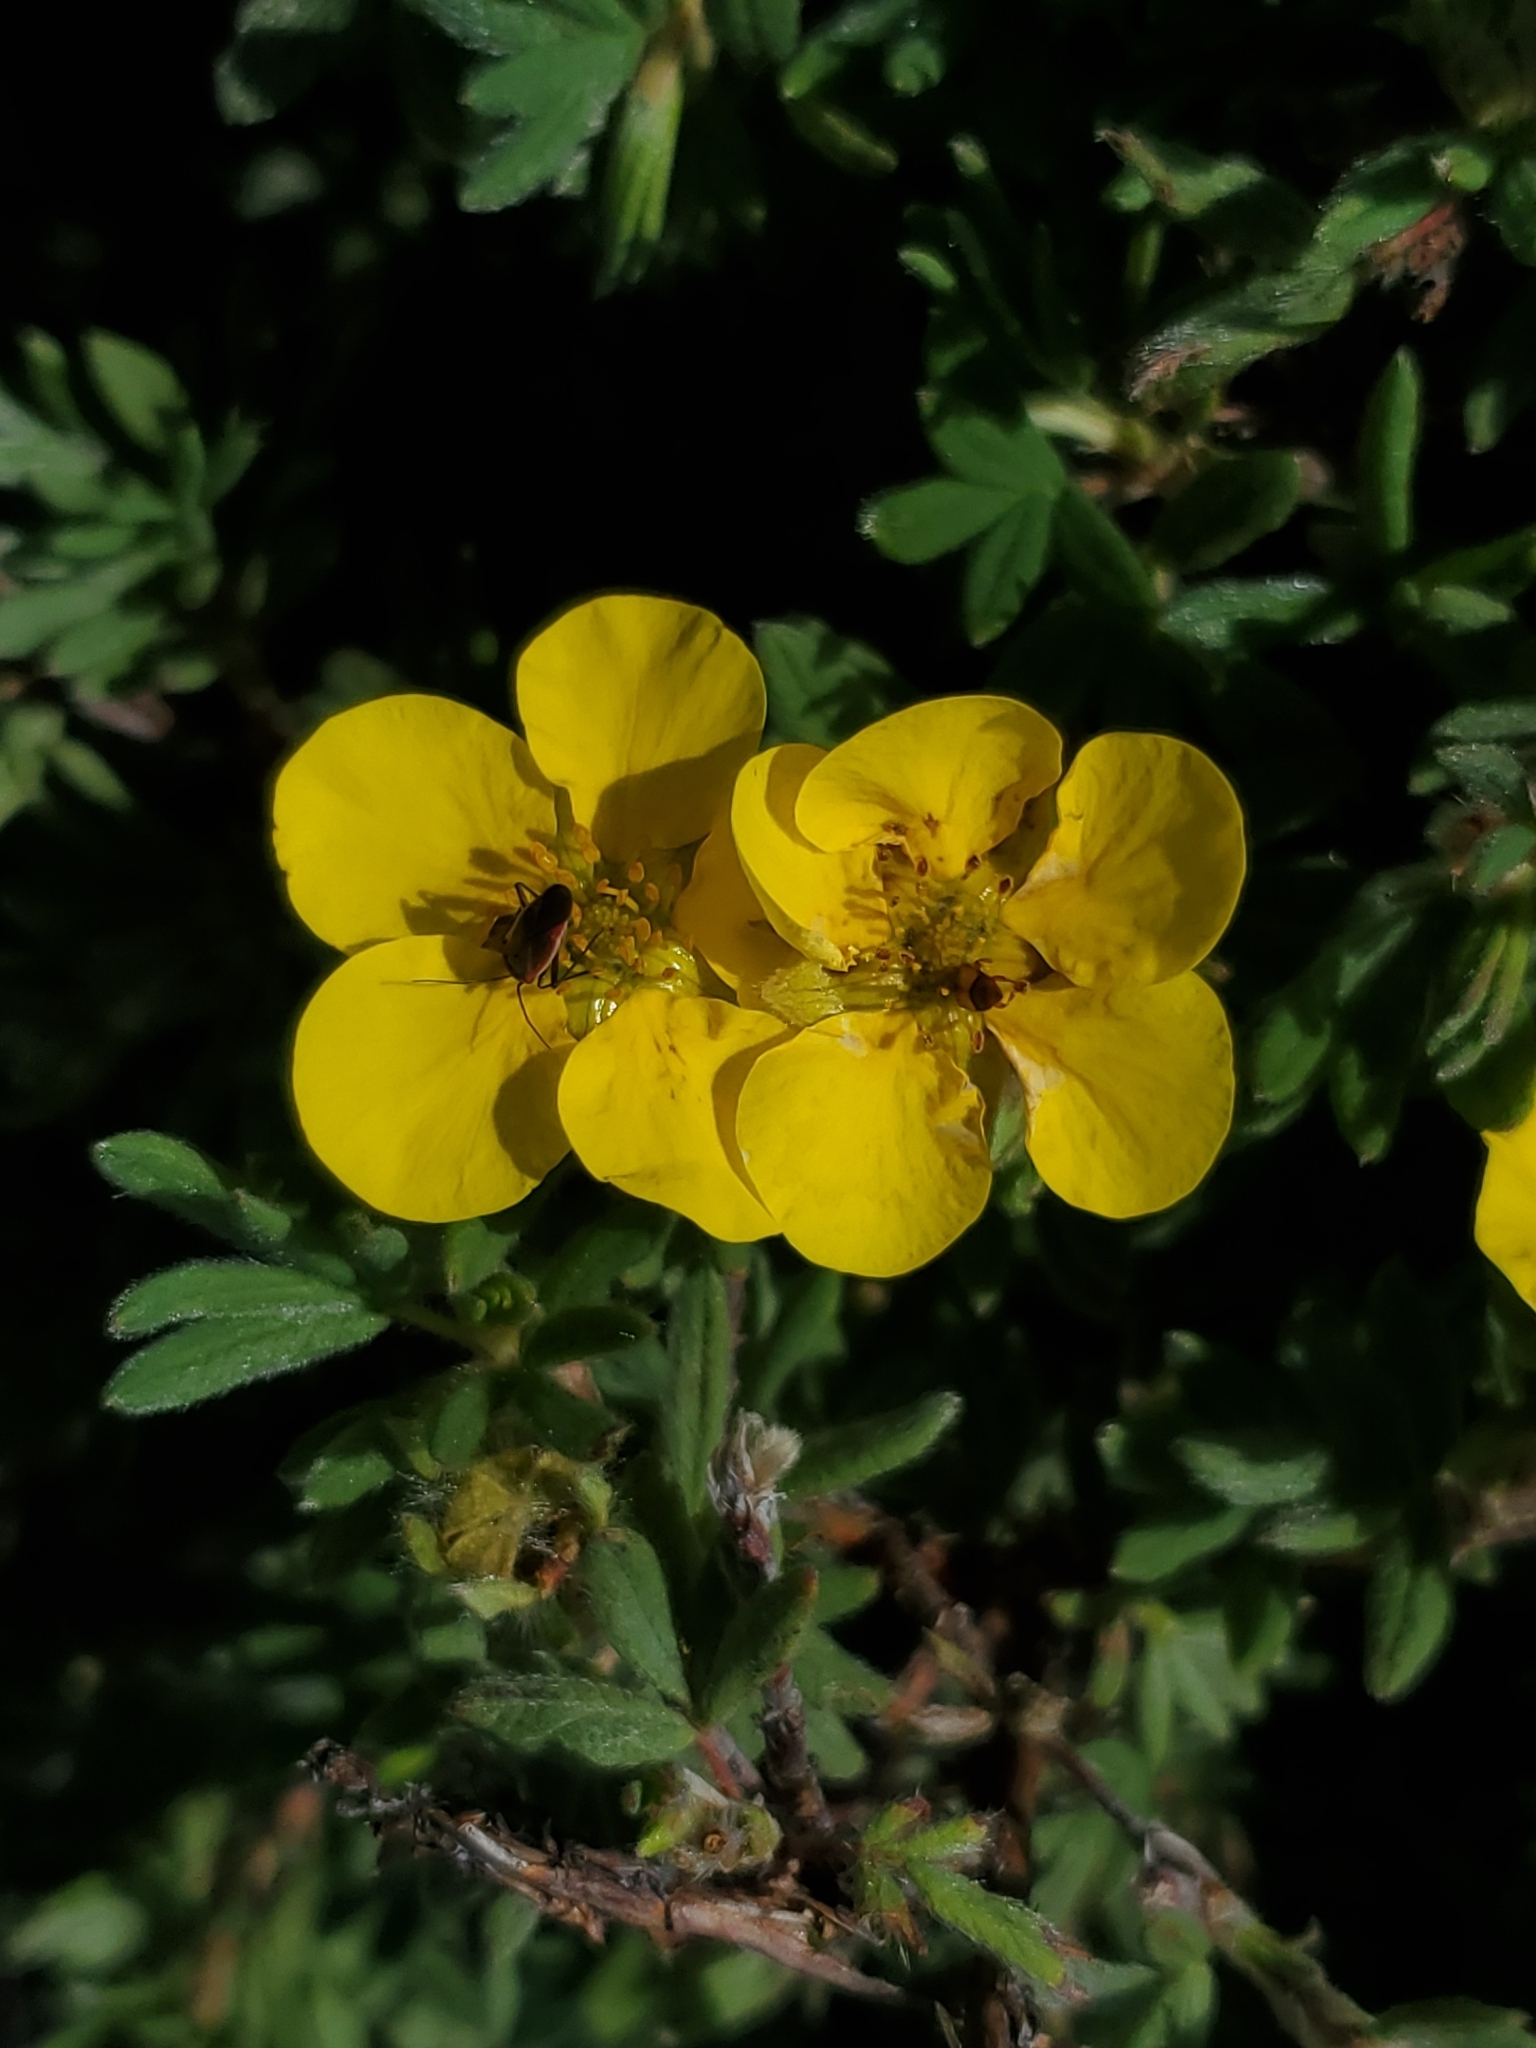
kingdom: Plantae
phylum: Tracheophyta
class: Magnoliopsida
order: Rosales
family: Rosaceae
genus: Dasiphora
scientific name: Dasiphora fruticosa
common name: Shrubby cinquefoil
